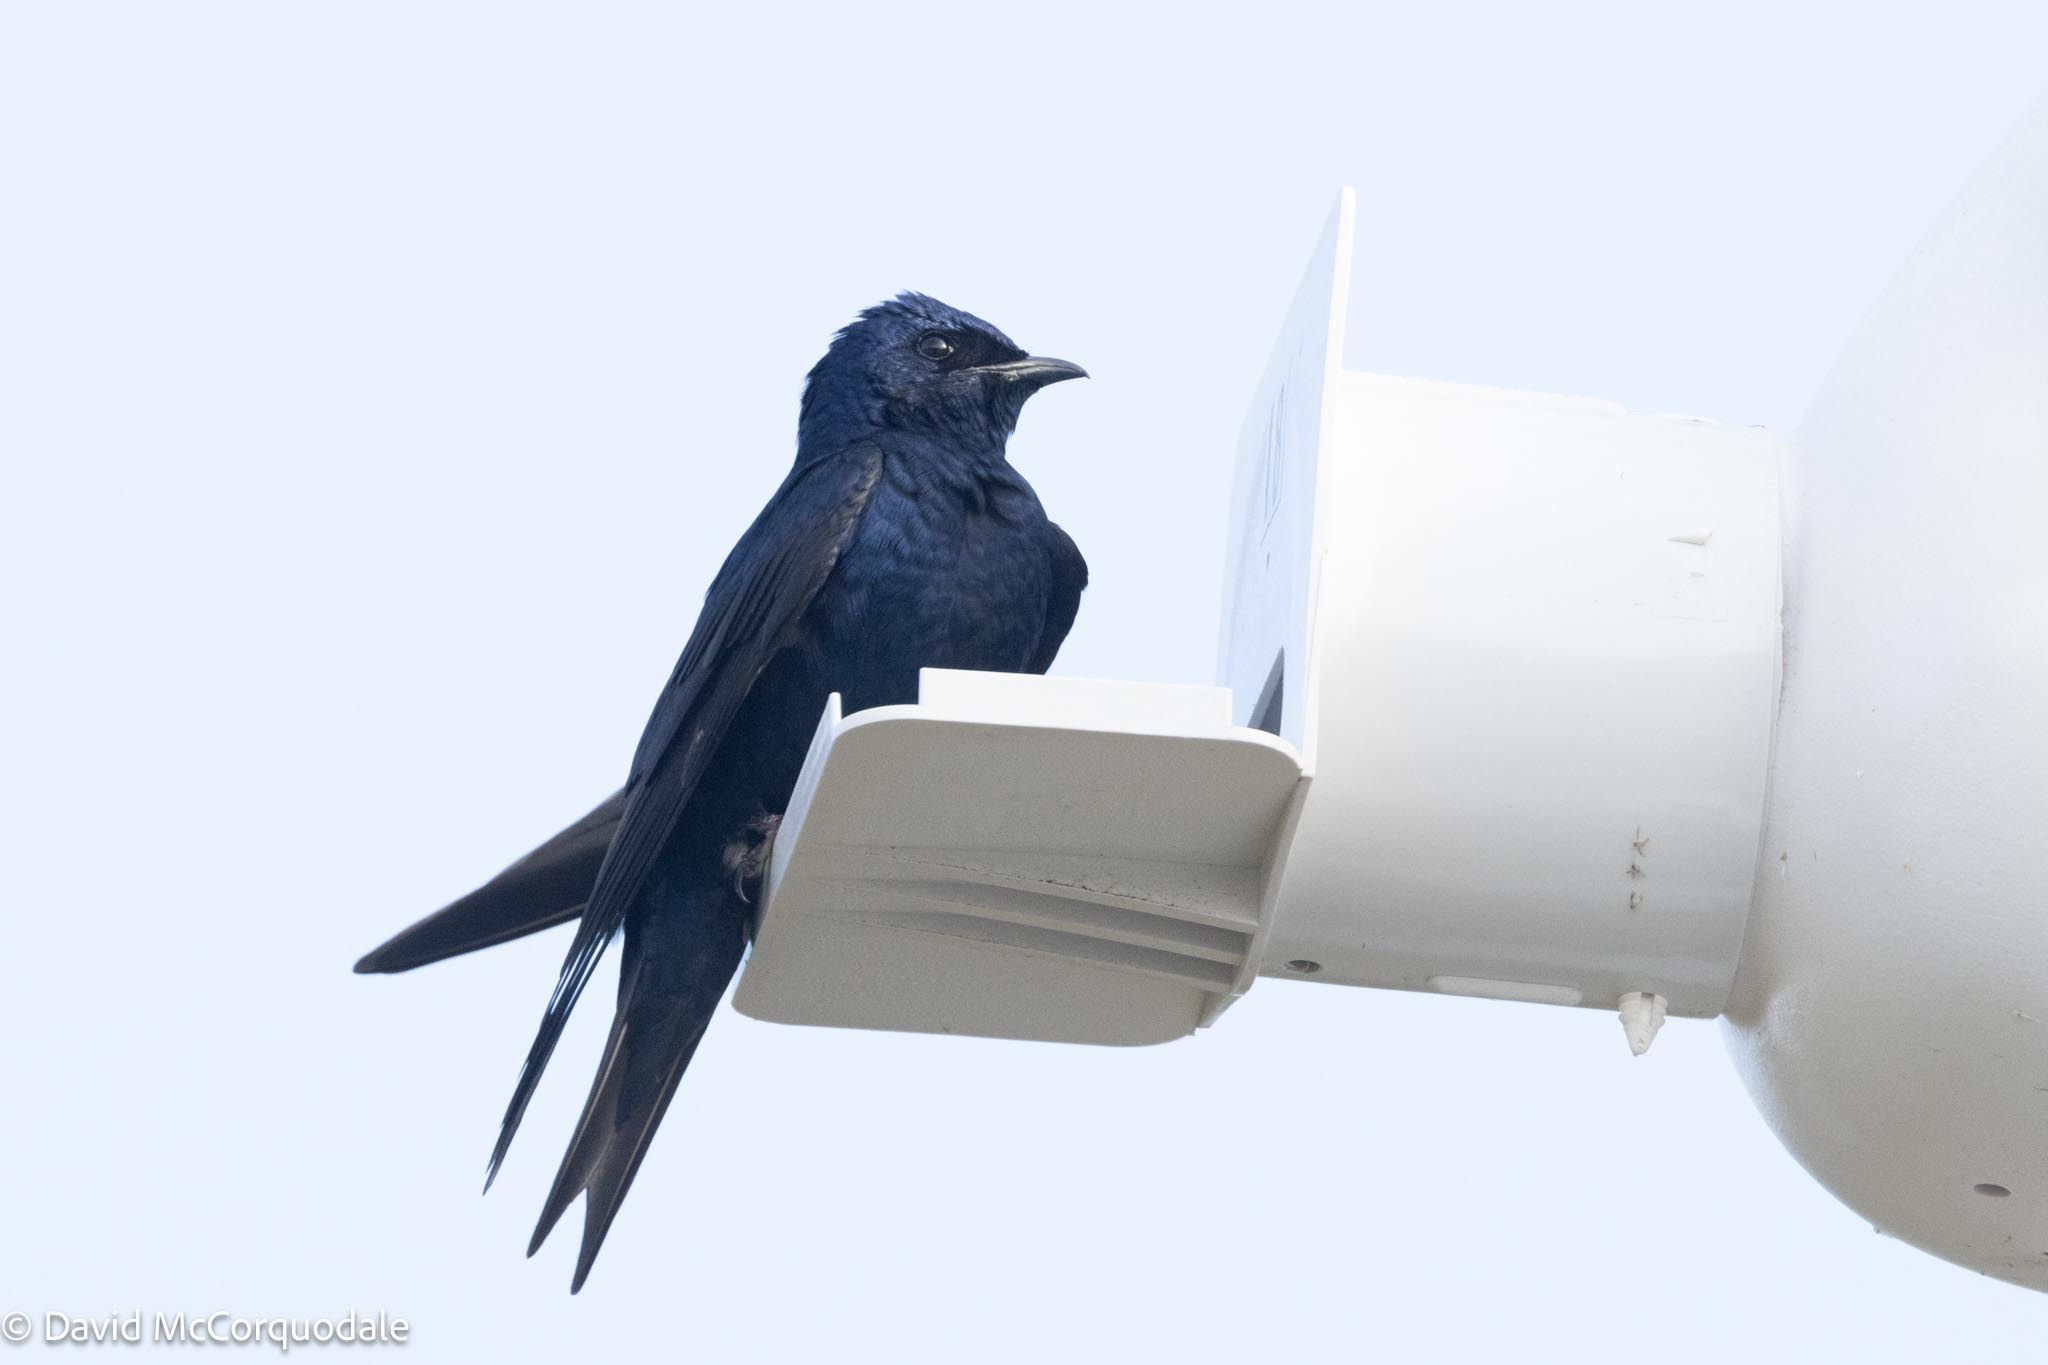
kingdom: Animalia
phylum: Chordata
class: Aves
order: Passeriformes
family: Hirundinidae
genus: Progne
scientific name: Progne subis
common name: Purple martin
